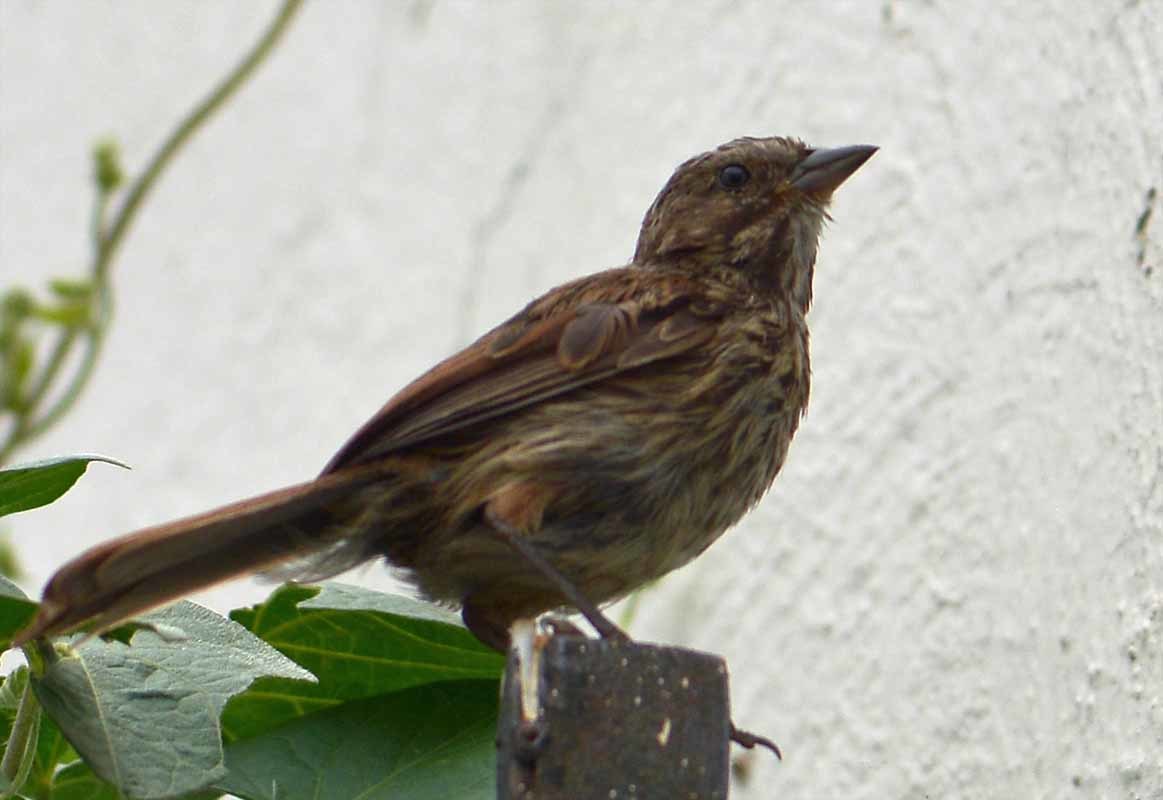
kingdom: Animalia
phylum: Chordata
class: Aves
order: Passeriformes
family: Passerellidae
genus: Melospiza
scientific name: Melospiza melodia
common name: Song sparrow
